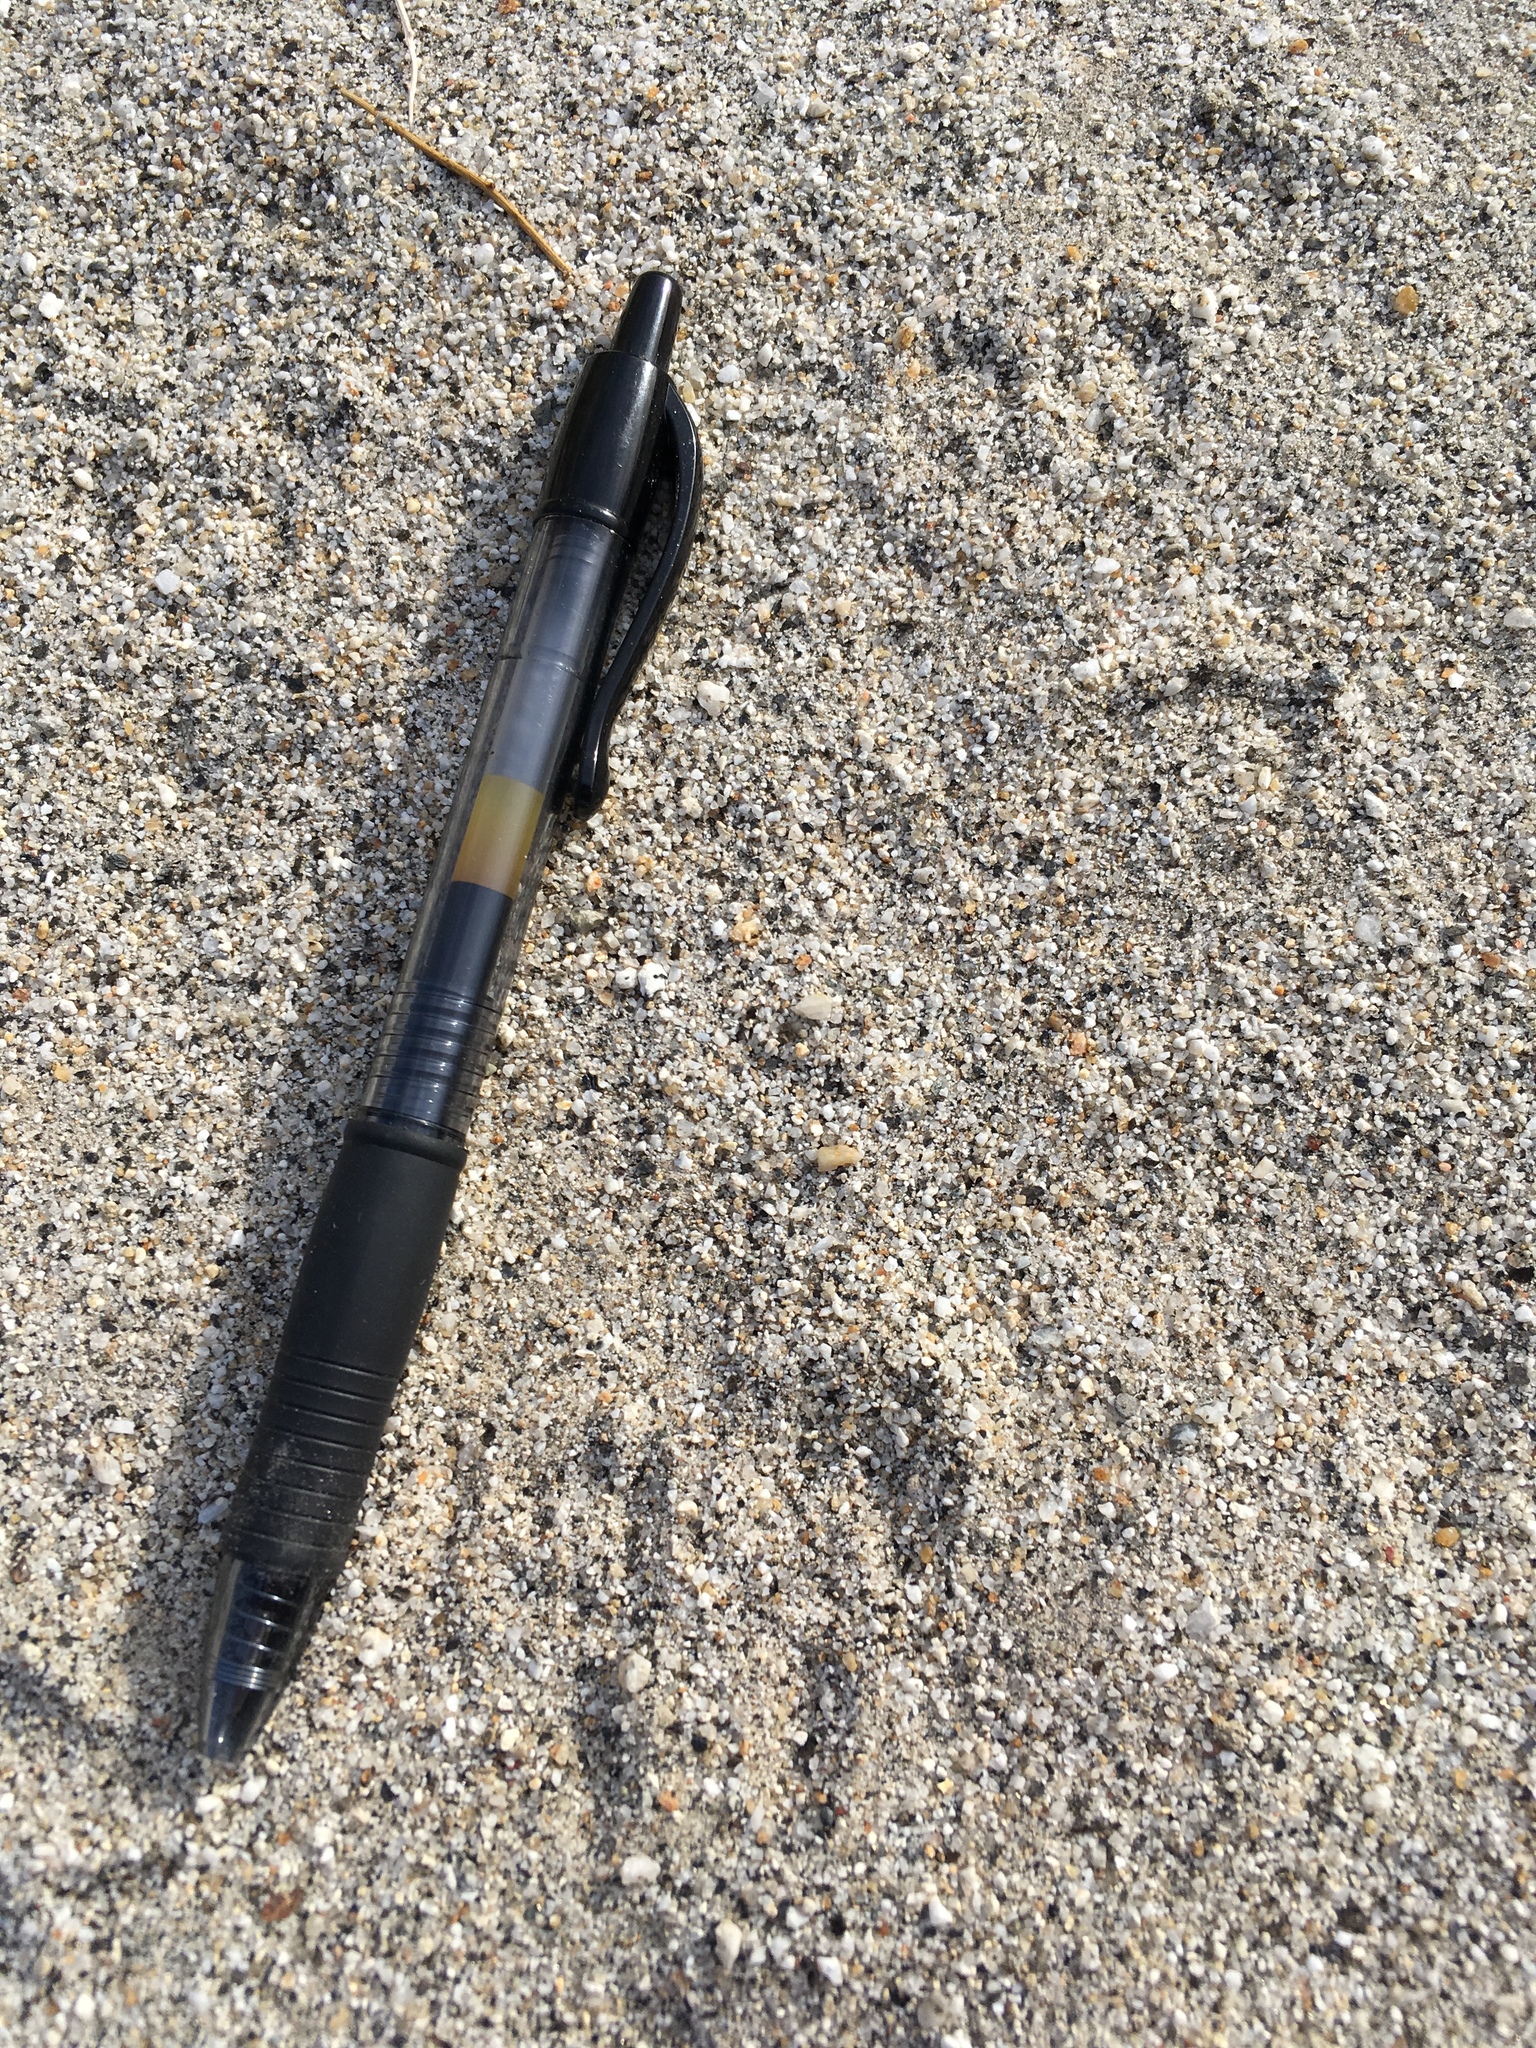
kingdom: Animalia
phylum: Chordata
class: Mammalia
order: Rodentia
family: Heteromyidae
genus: Dipodomys
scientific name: Dipodomys merriami
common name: Merriam's kangaroo rat
